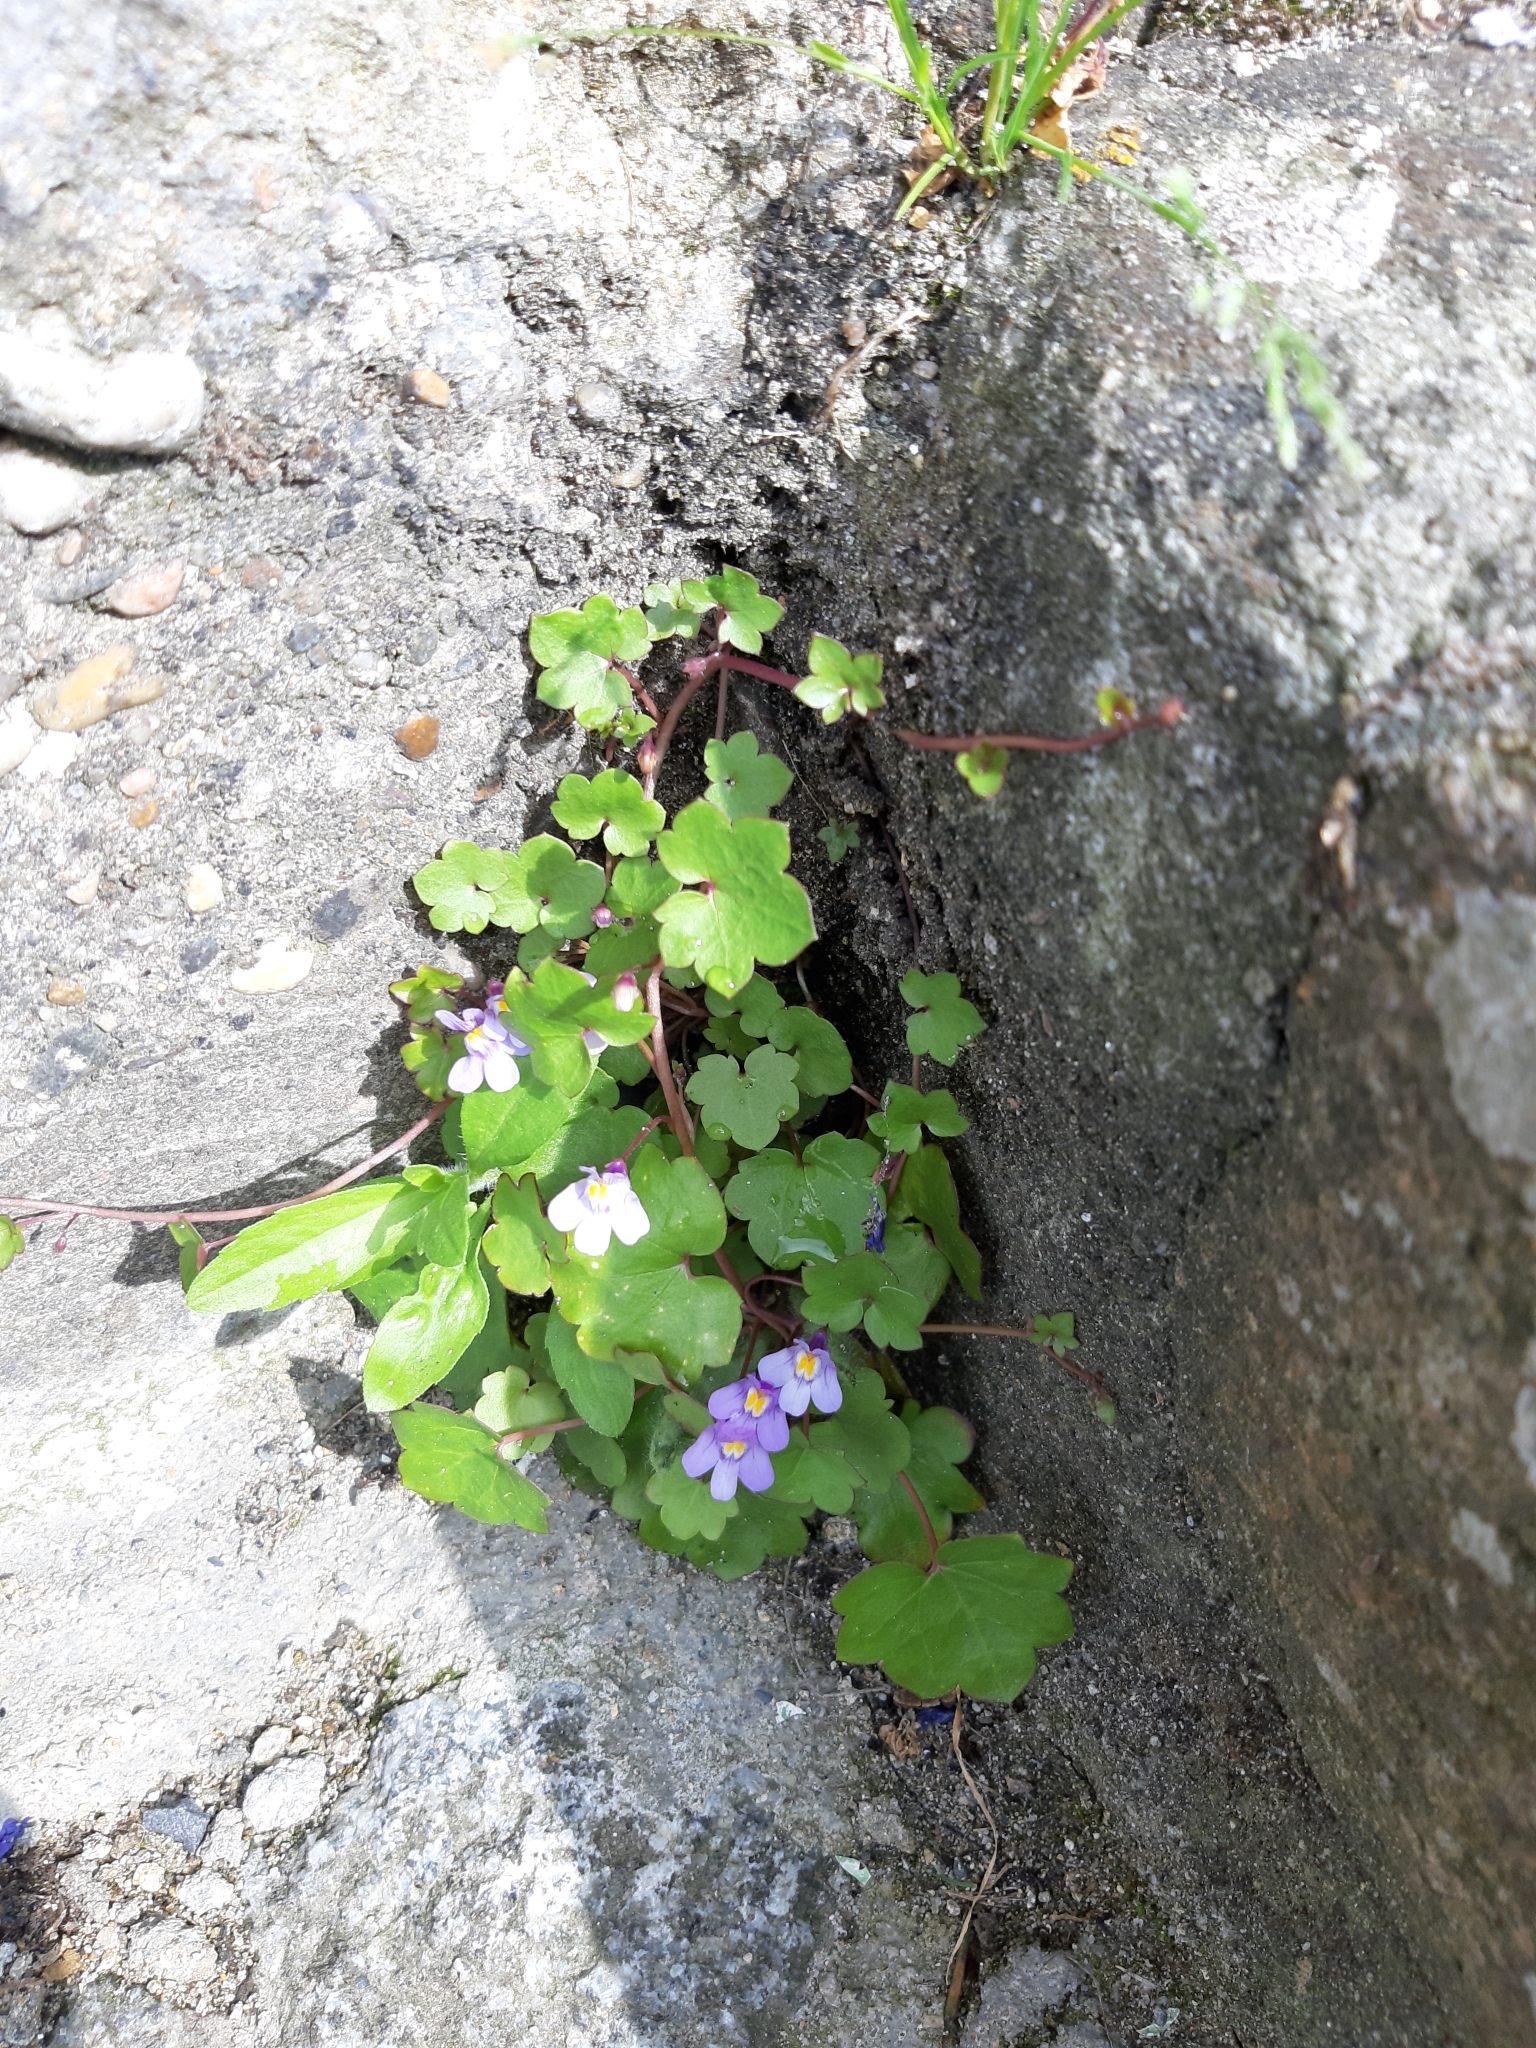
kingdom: Plantae
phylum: Tracheophyta
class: Magnoliopsida
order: Lamiales
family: Plantaginaceae
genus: Cymbalaria
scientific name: Cymbalaria muralis
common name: Ivy-leaved toadflax
